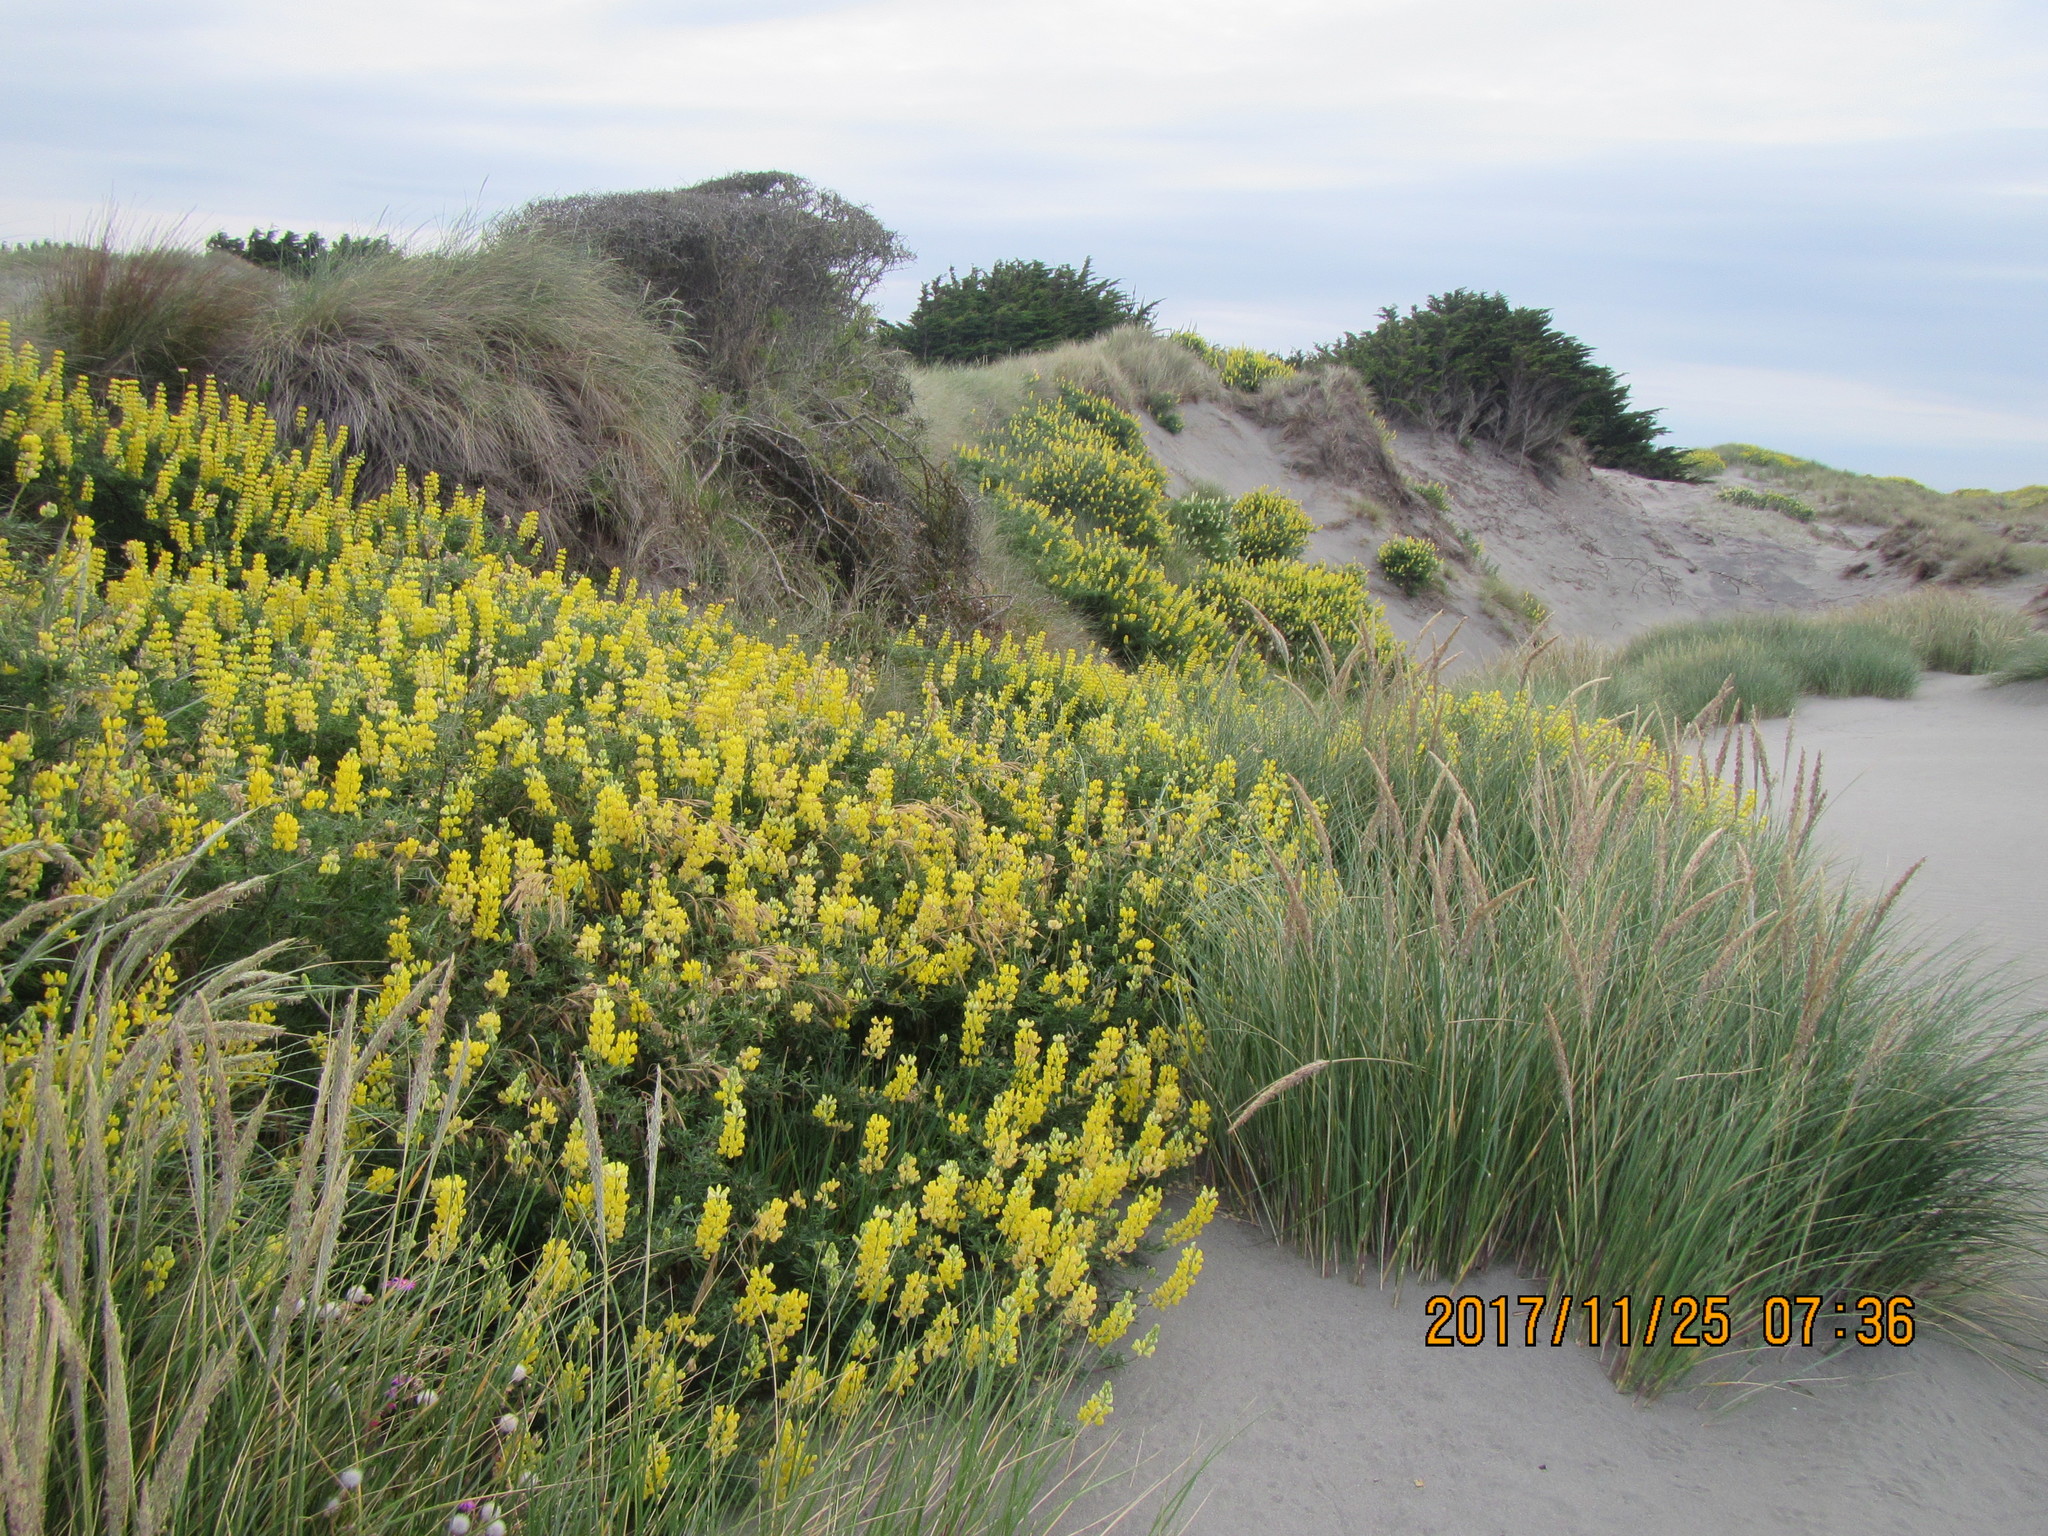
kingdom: Plantae
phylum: Tracheophyta
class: Magnoliopsida
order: Fabales
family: Fabaceae
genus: Lupinus
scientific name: Lupinus arboreus
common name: Yellow bush lupine
